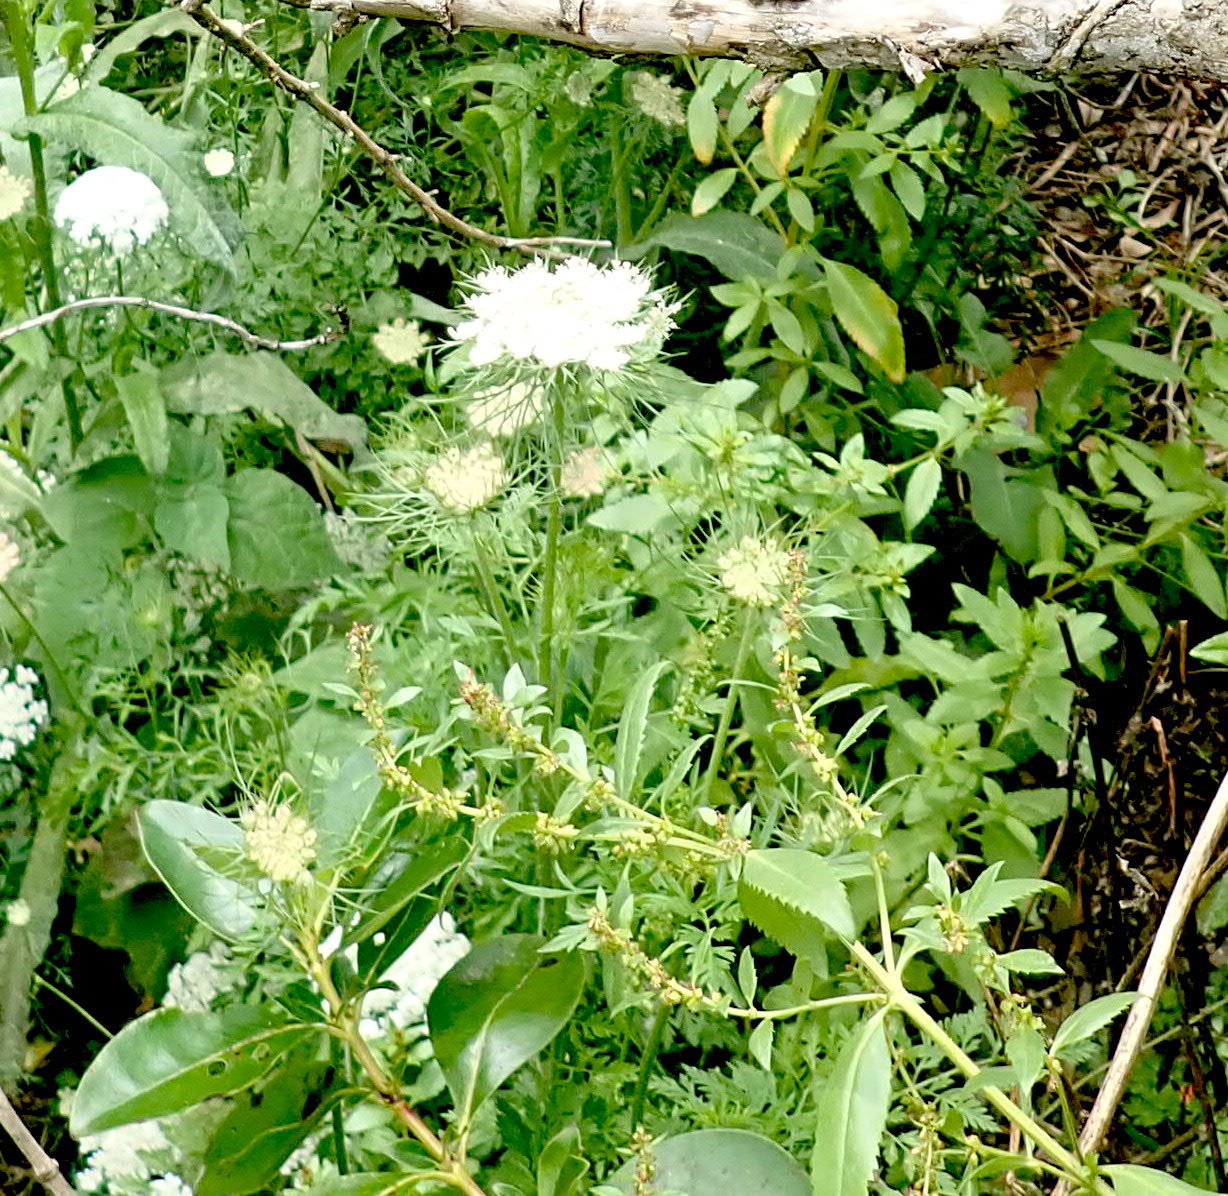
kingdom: Plantae
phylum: Tracheophyta
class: Magnoliopsida
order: Apiales
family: Apiaceae
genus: Daucus
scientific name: Daucus carota
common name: Wild carrot
